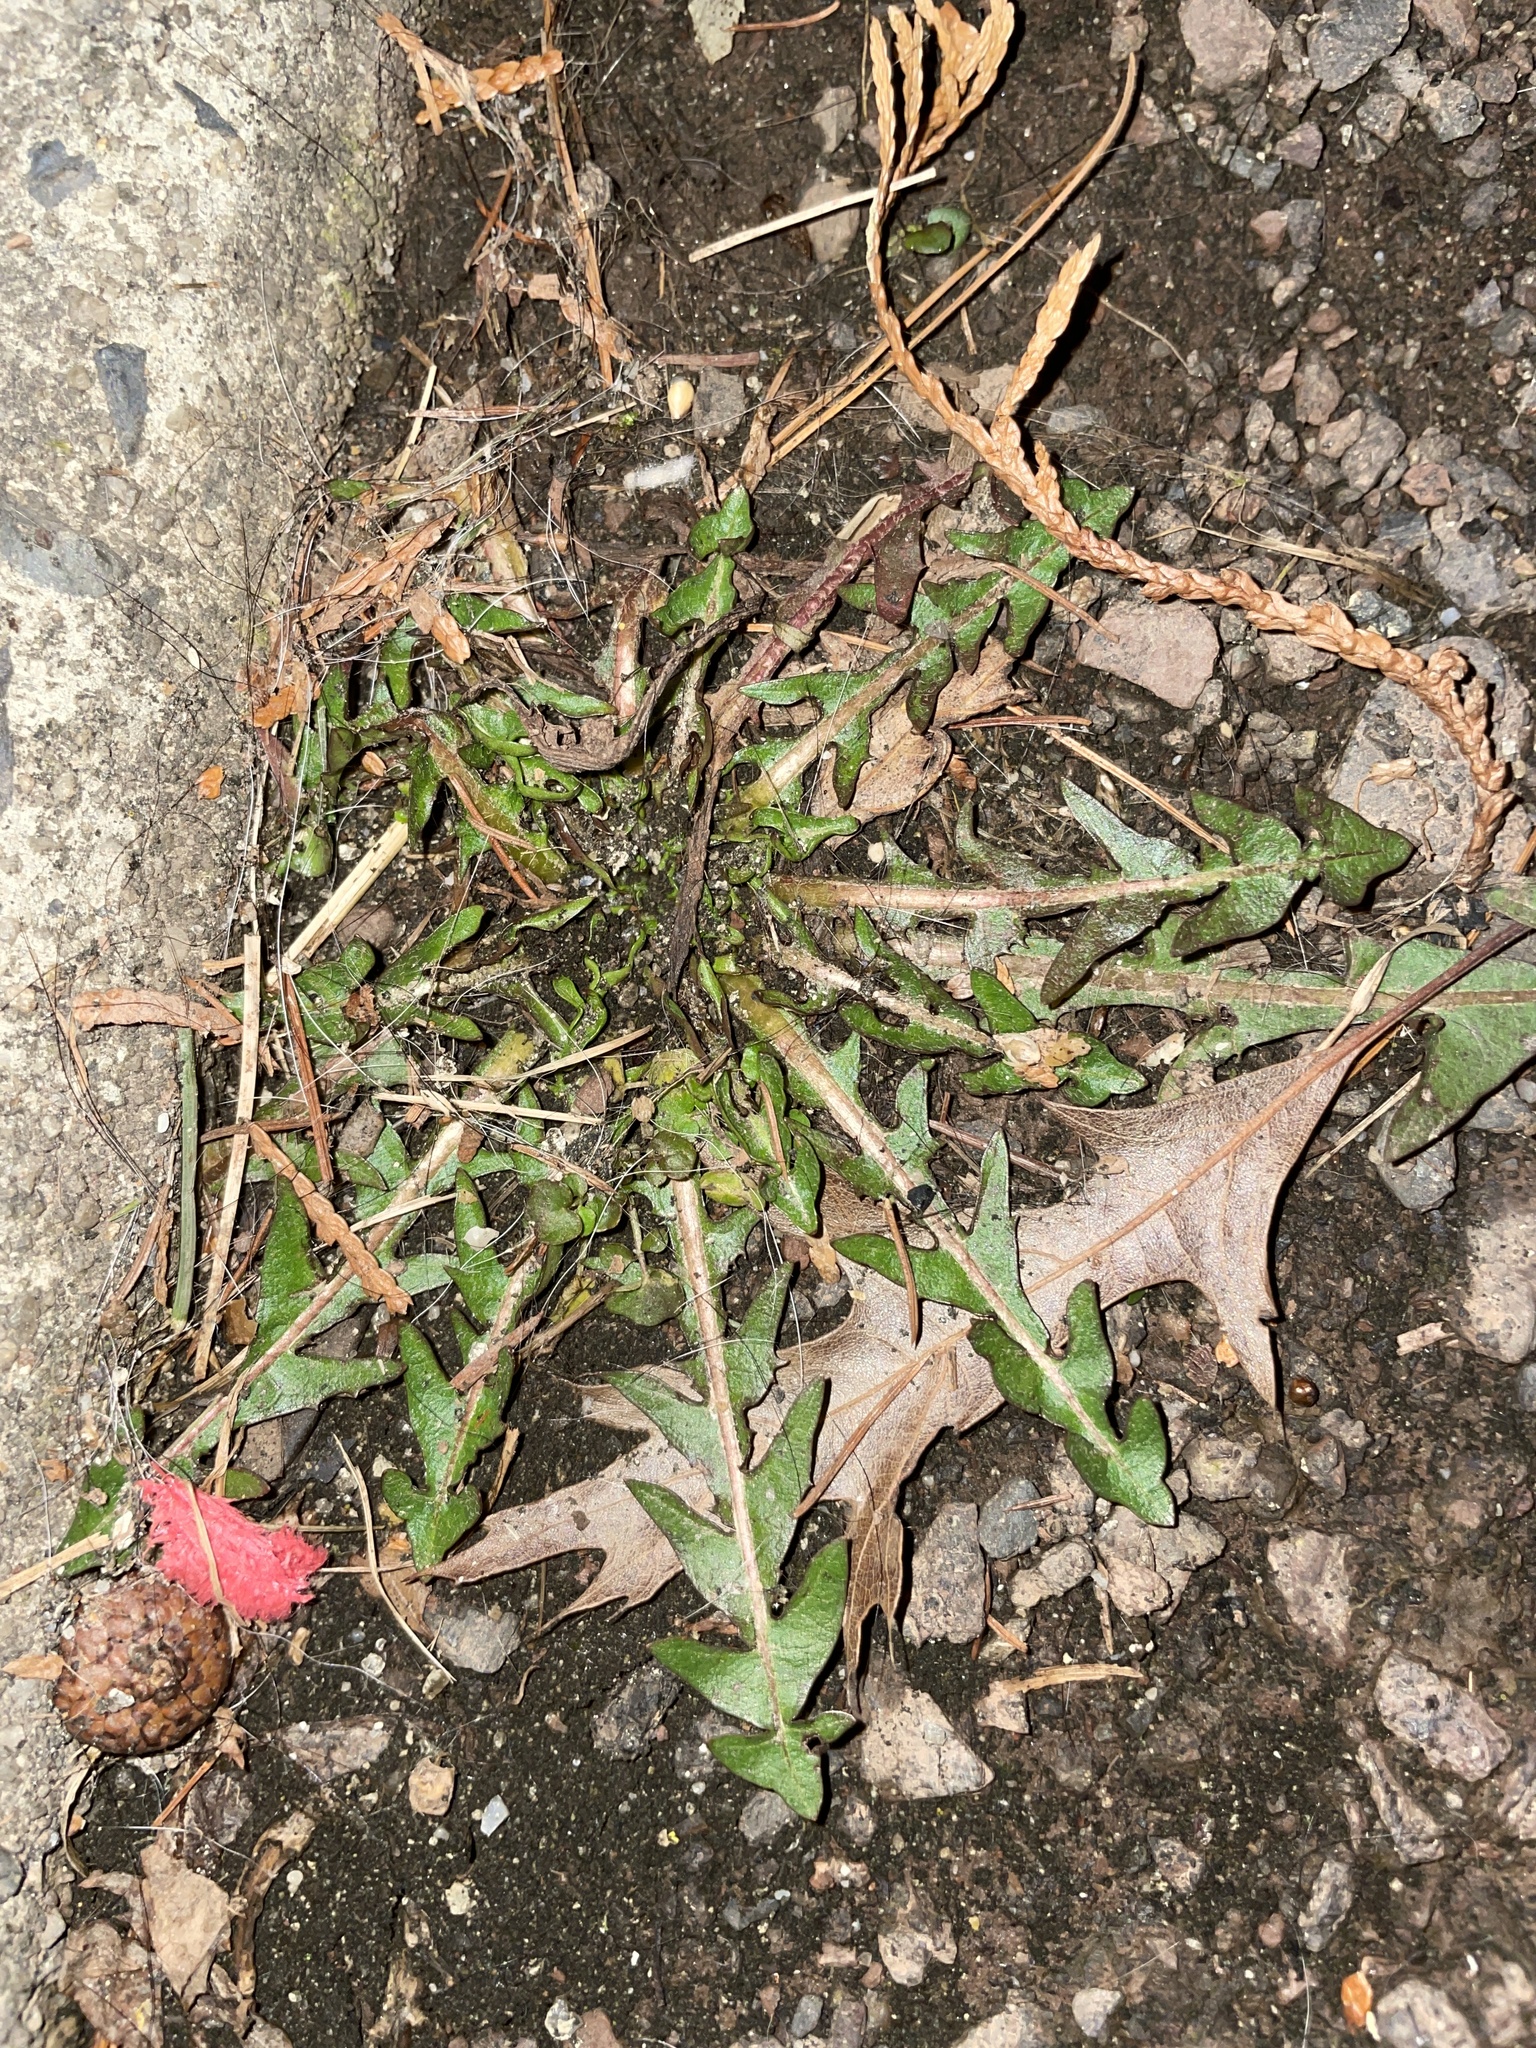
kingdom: Plantae
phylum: Tracheophyta
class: Magnoliopsida
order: Asterales
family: Asteraceae
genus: Taraxacum
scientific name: Taraxacum
